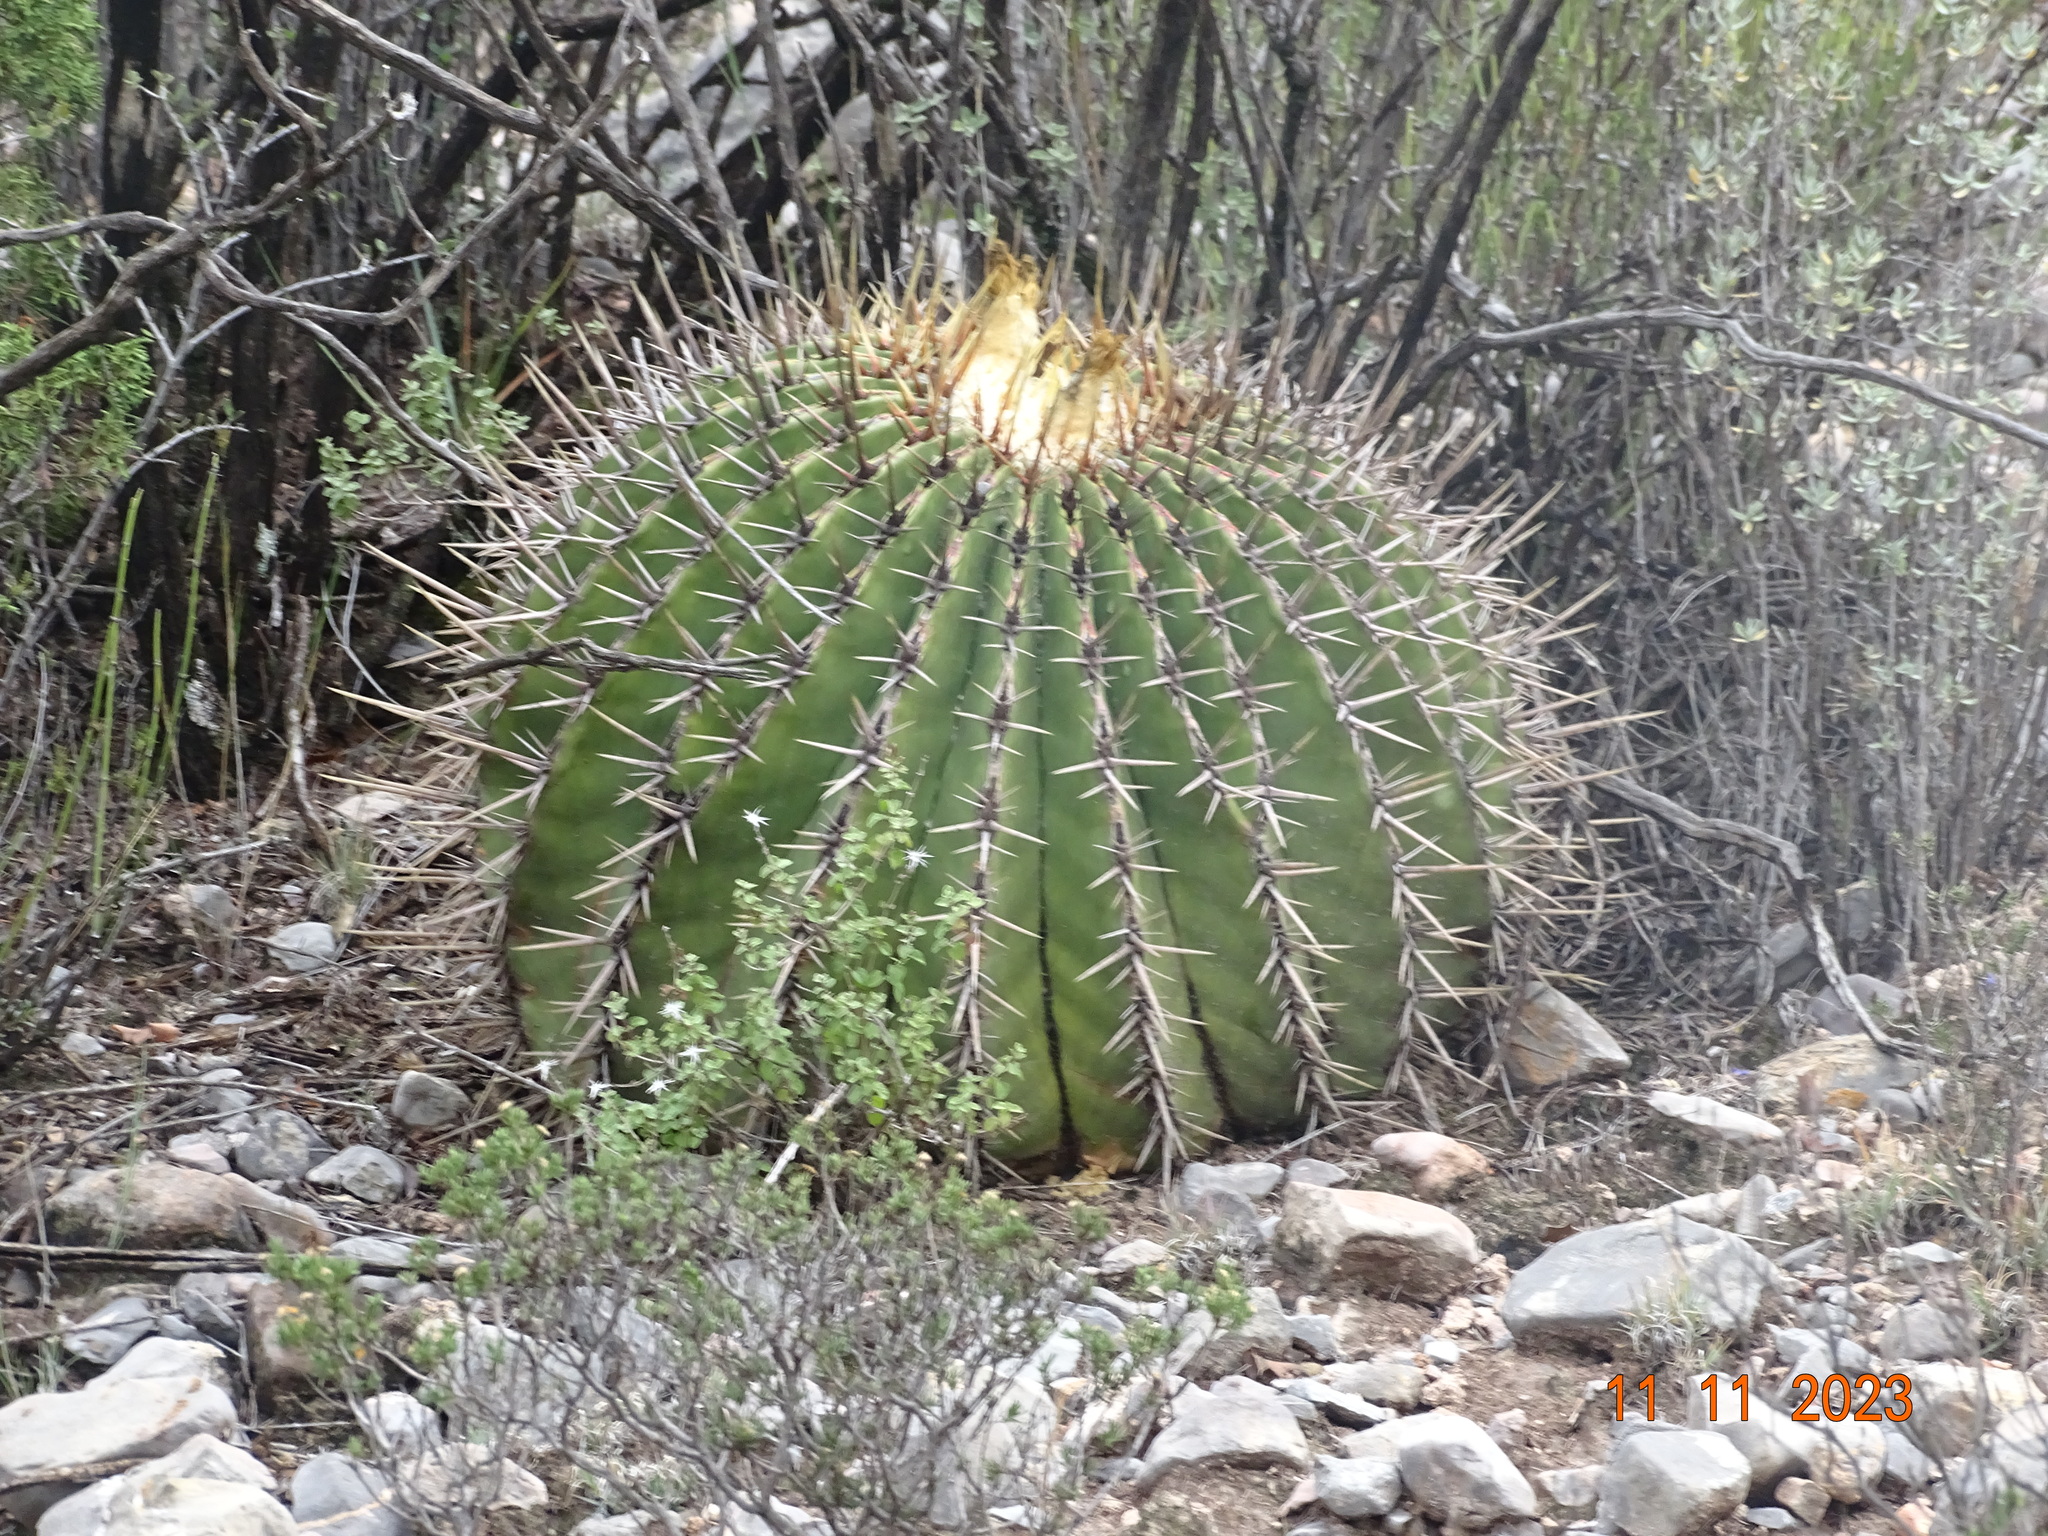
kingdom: Plantae
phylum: Tracheophyta
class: Magnoliopsida
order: Caryophyllales
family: Cactaceae
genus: Echinocactus
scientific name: Echinocactus platyacanthus
